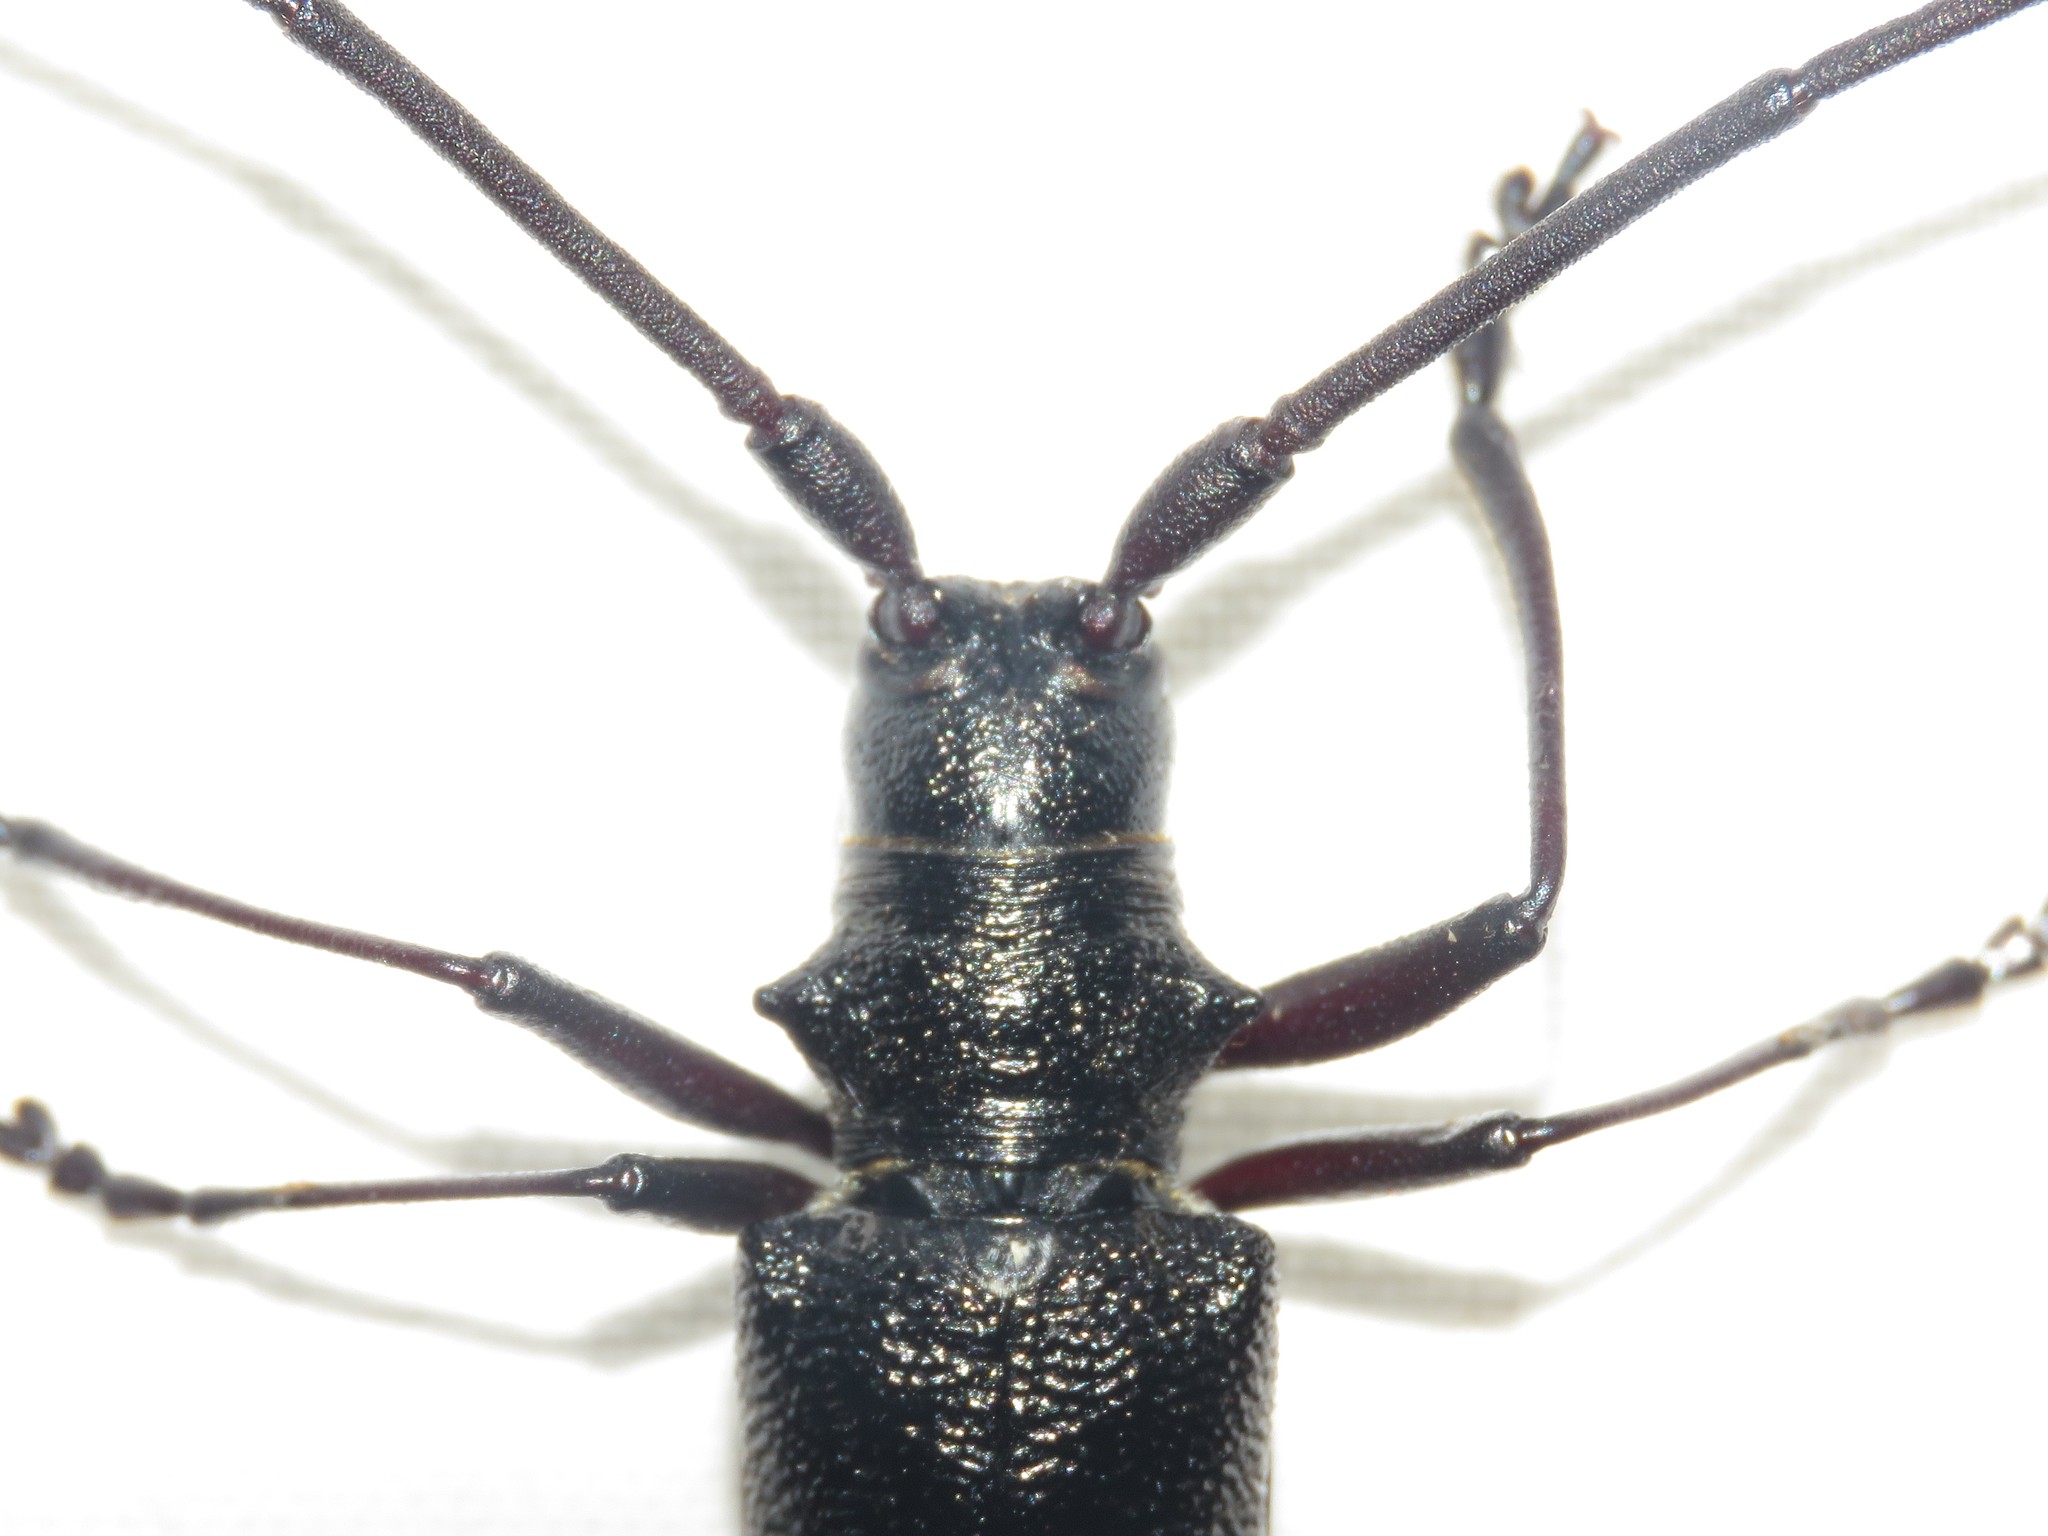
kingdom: Animalia
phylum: Arthropoda
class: Insecta
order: Coleoptera
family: Cerambycidae
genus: Monochamus
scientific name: Monochamus scutellatus
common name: White-spotted sawyer beetle
